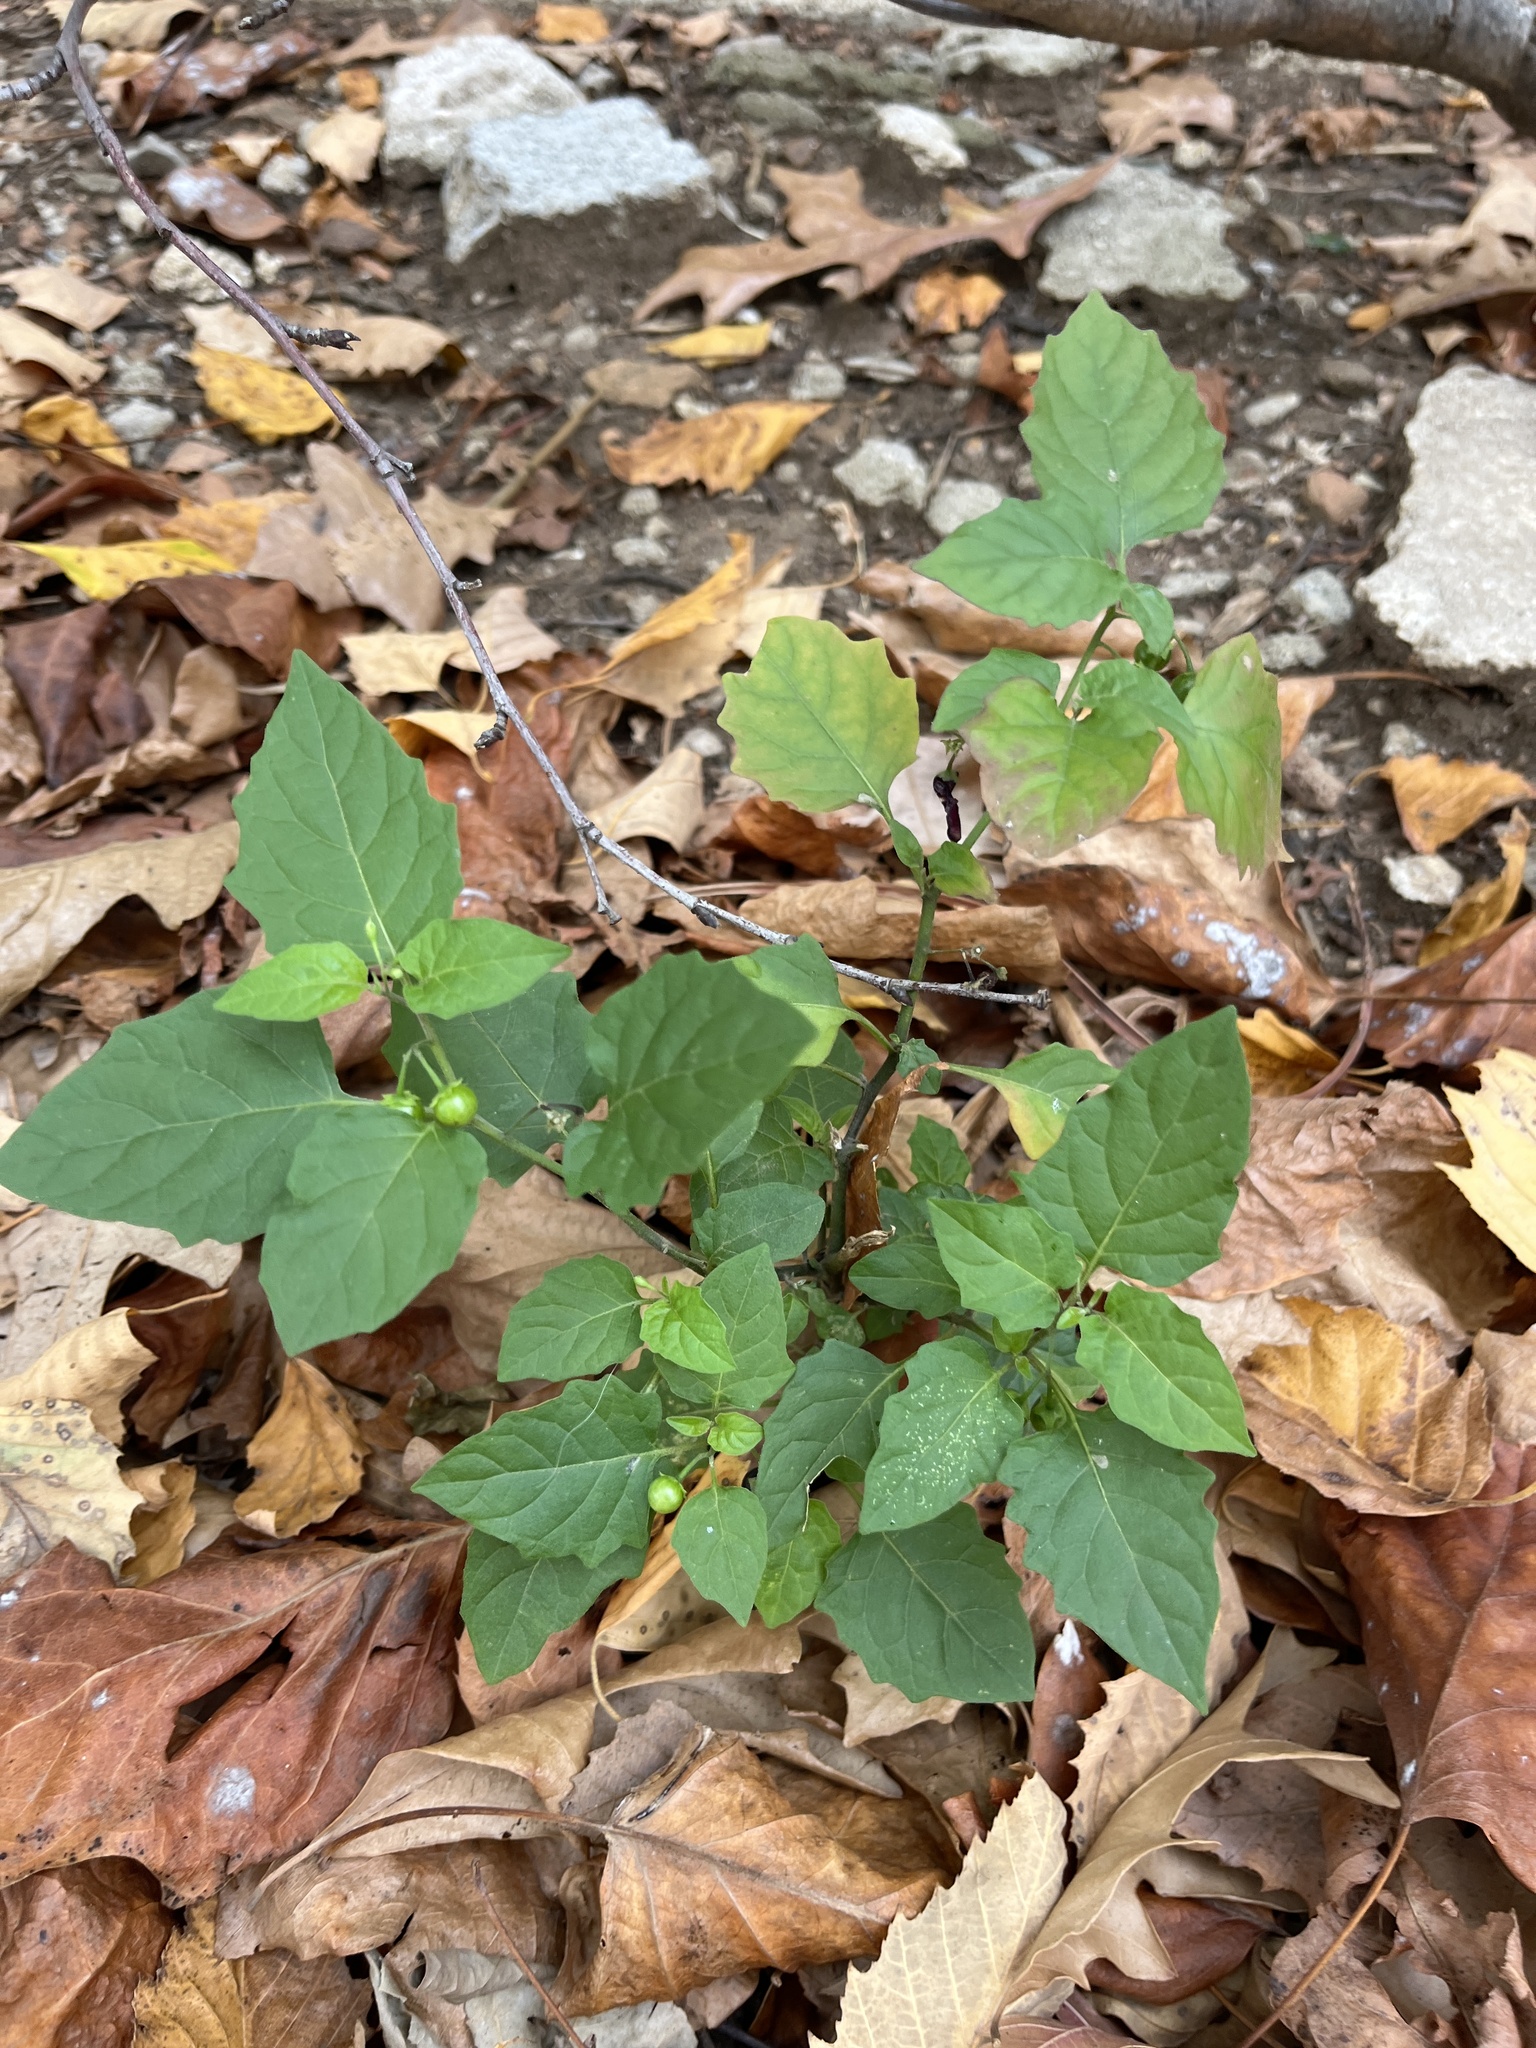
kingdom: Plantae
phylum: Tracheophyta
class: Magnoliopsida
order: Solanales
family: Solanaceae
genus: Solanum
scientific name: Solanum emulans
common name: Eastern black nightshade
